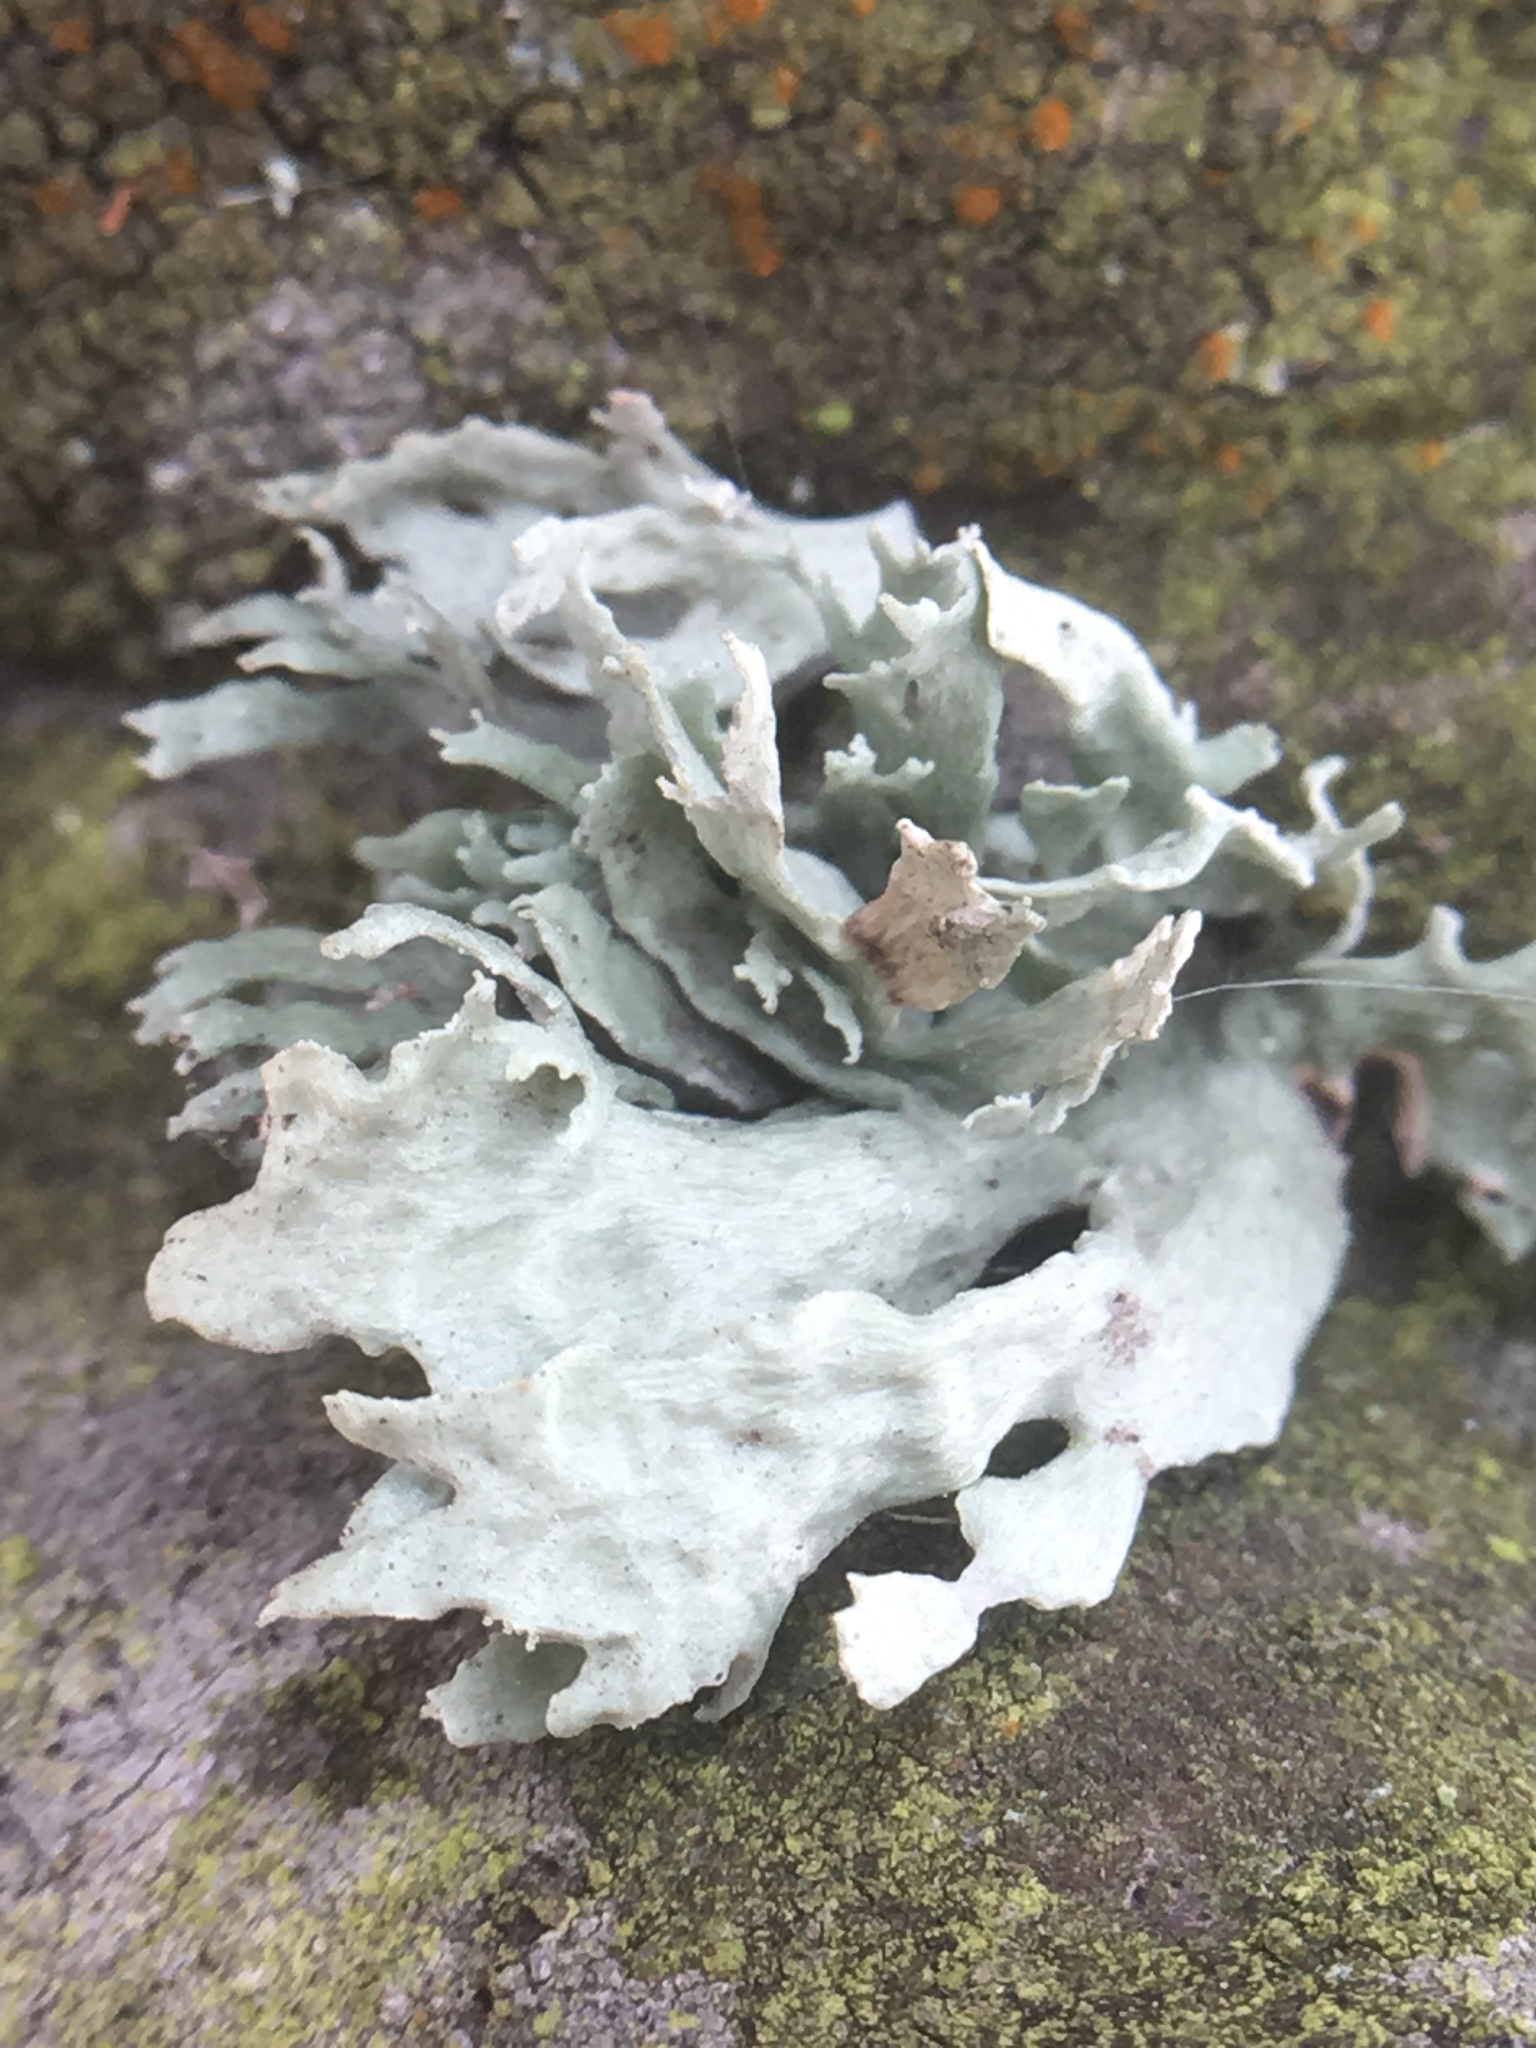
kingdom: Fungi
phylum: Ascomycota
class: Lecanoromycetes
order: Lecanorales
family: Ramalinaceae
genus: Ramalina
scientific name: Ramalina canariensis
